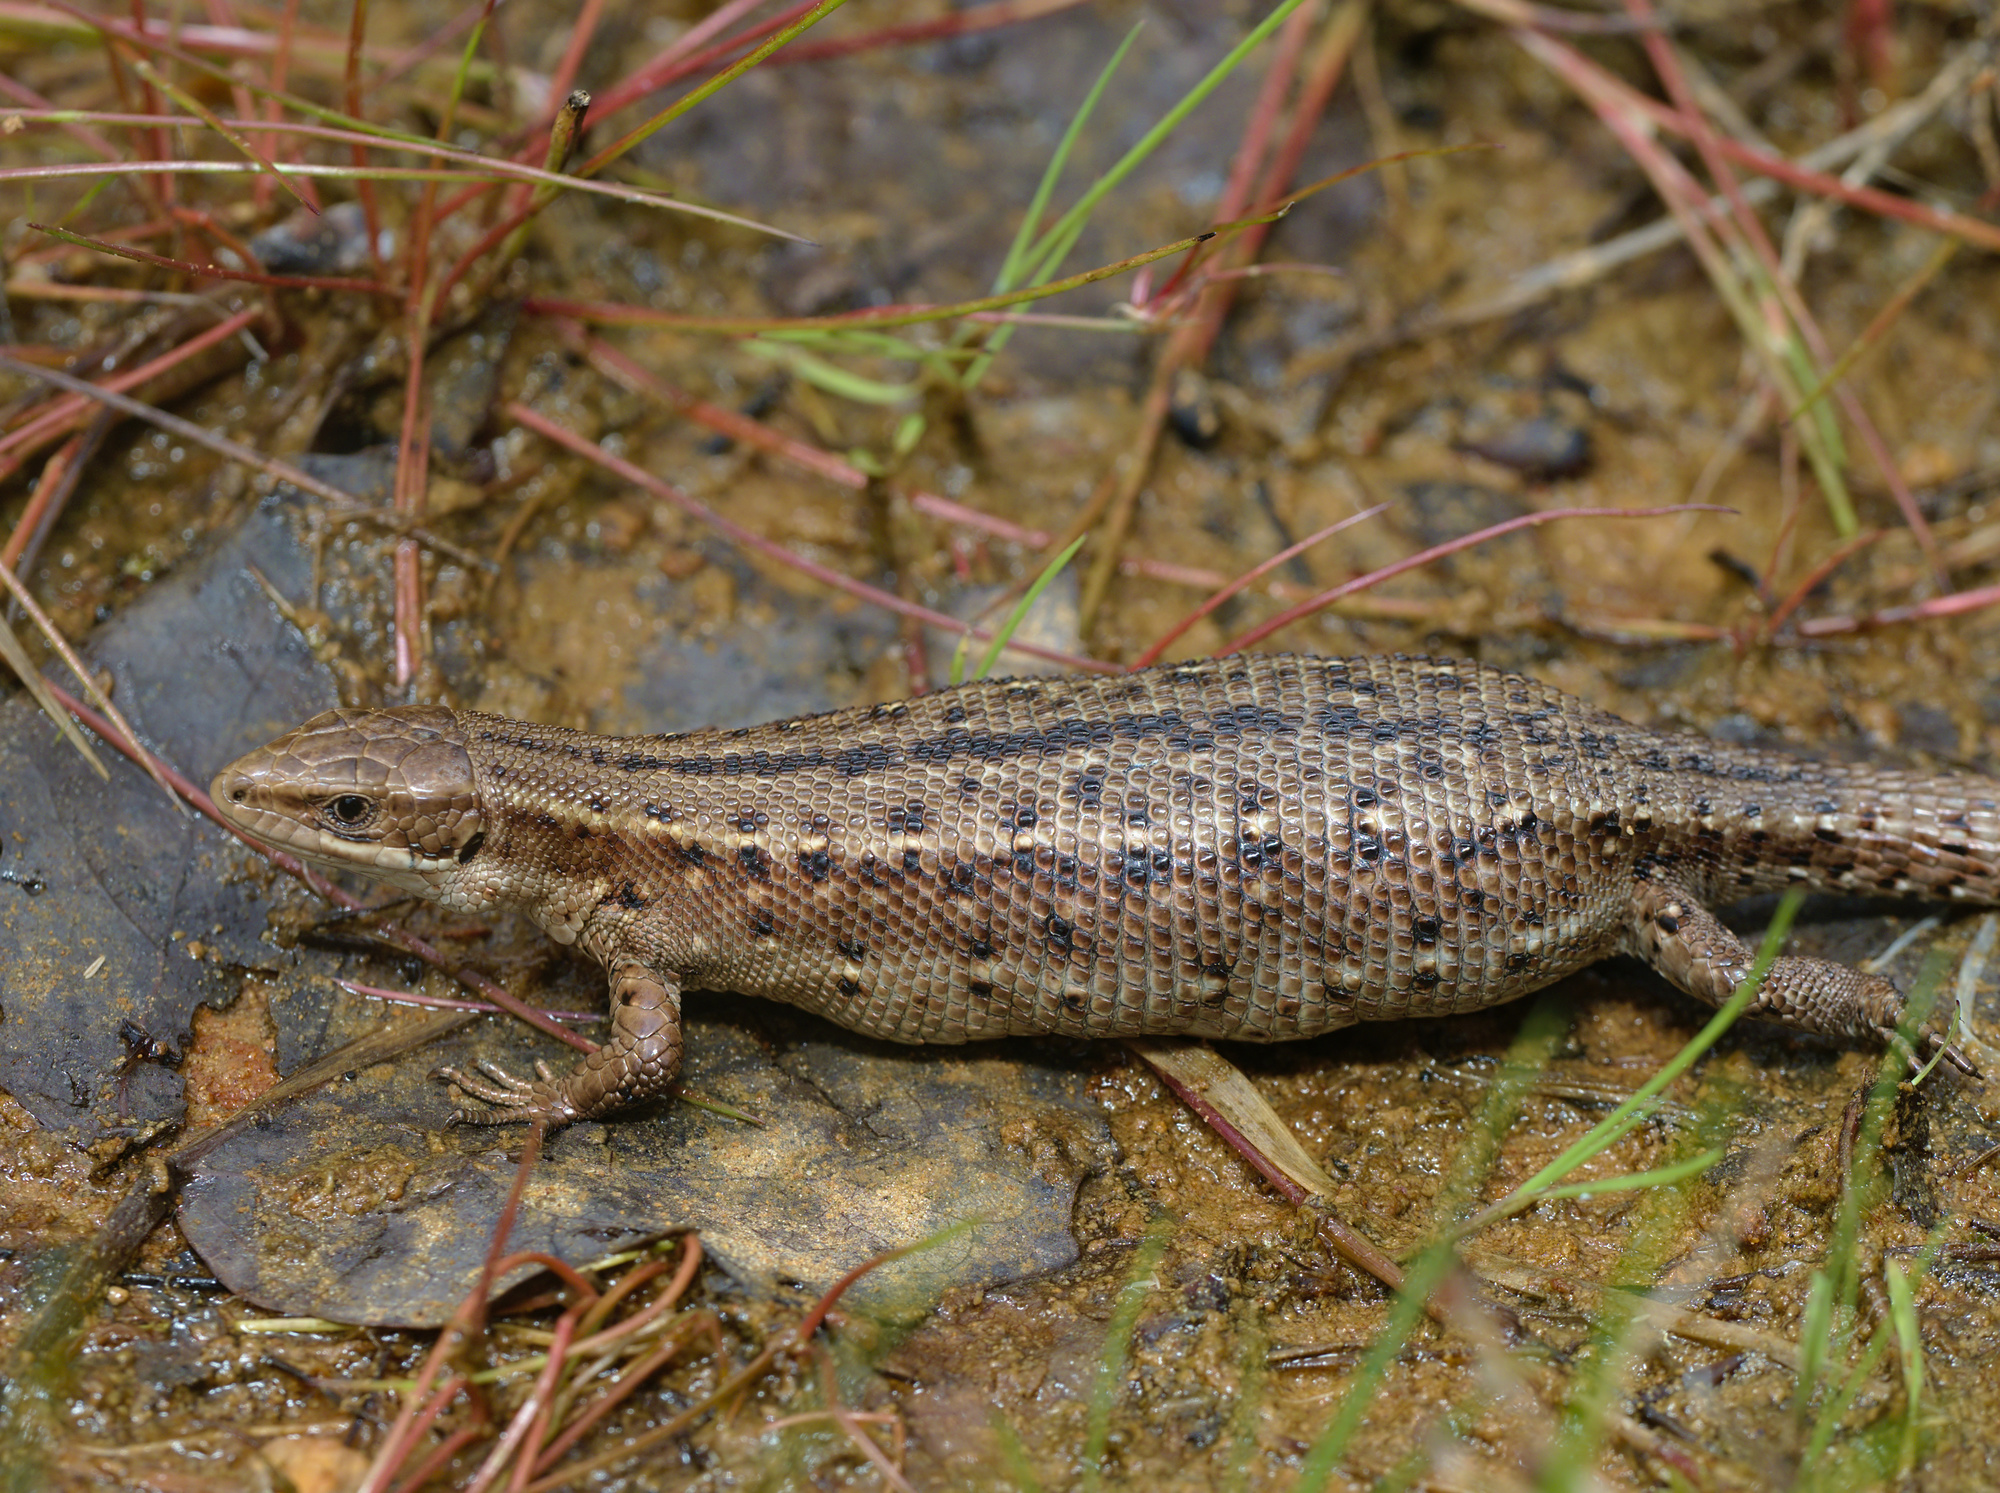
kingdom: Animalia
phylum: Chordata
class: Squamata
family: Lacertidae
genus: Zootoca
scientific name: Zootoca vivipara
